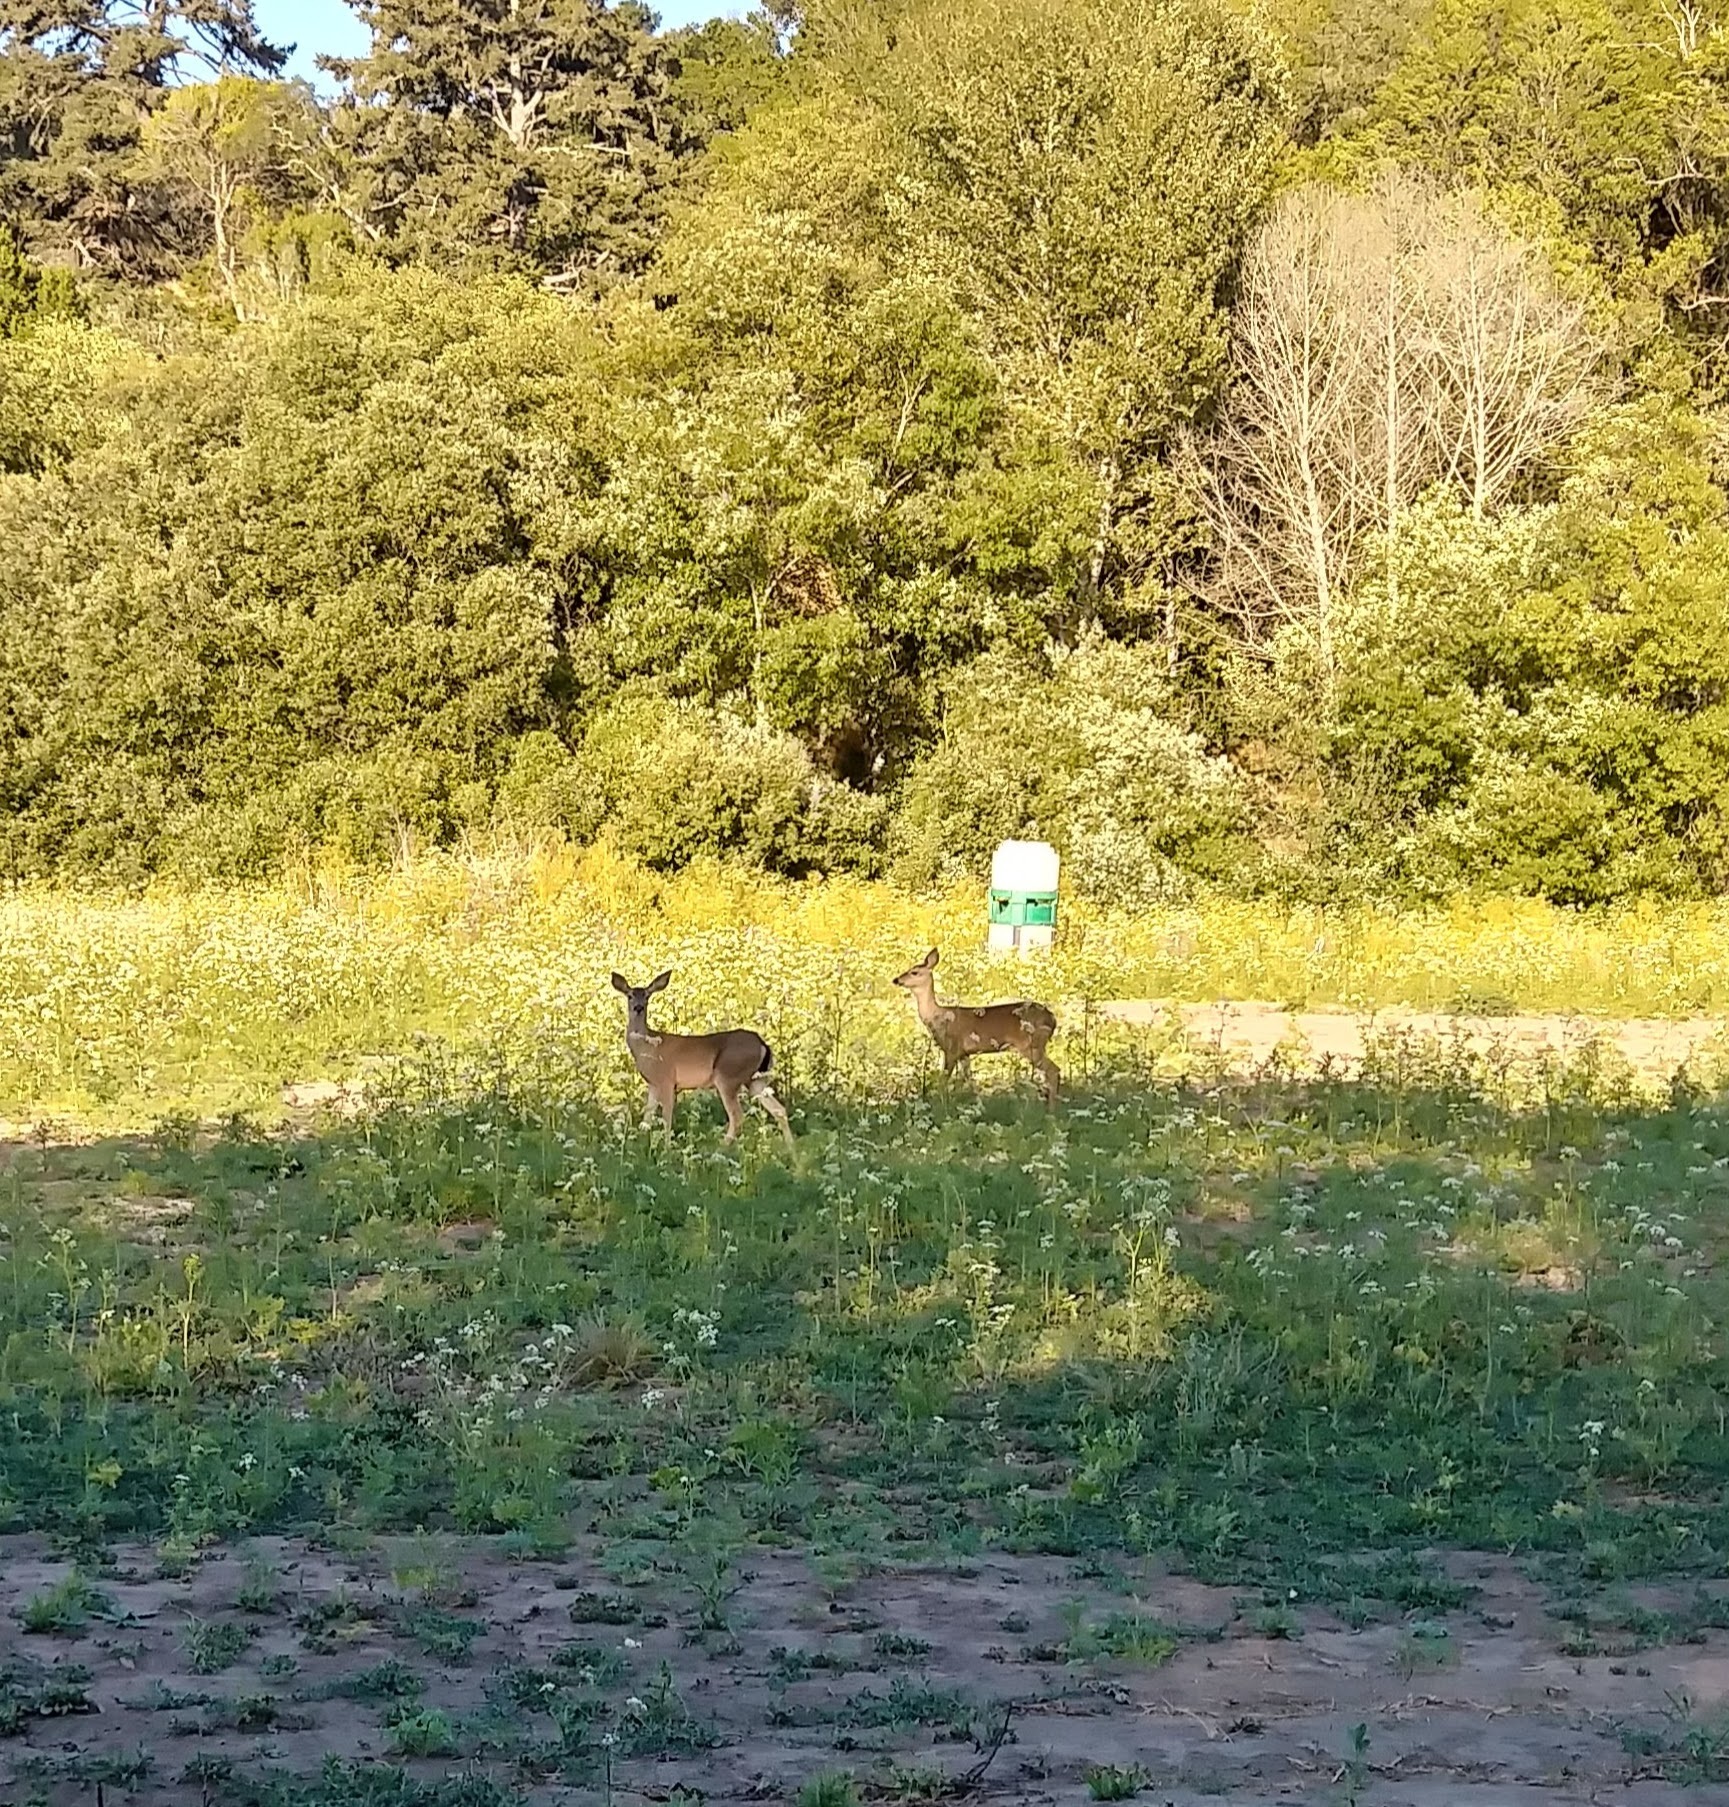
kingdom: Animalia
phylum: Chordata
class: Mammalia
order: Artiodactyla
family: Cervidae
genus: Odocoileus
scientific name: Odocoileus hemionus
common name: Mule deer
